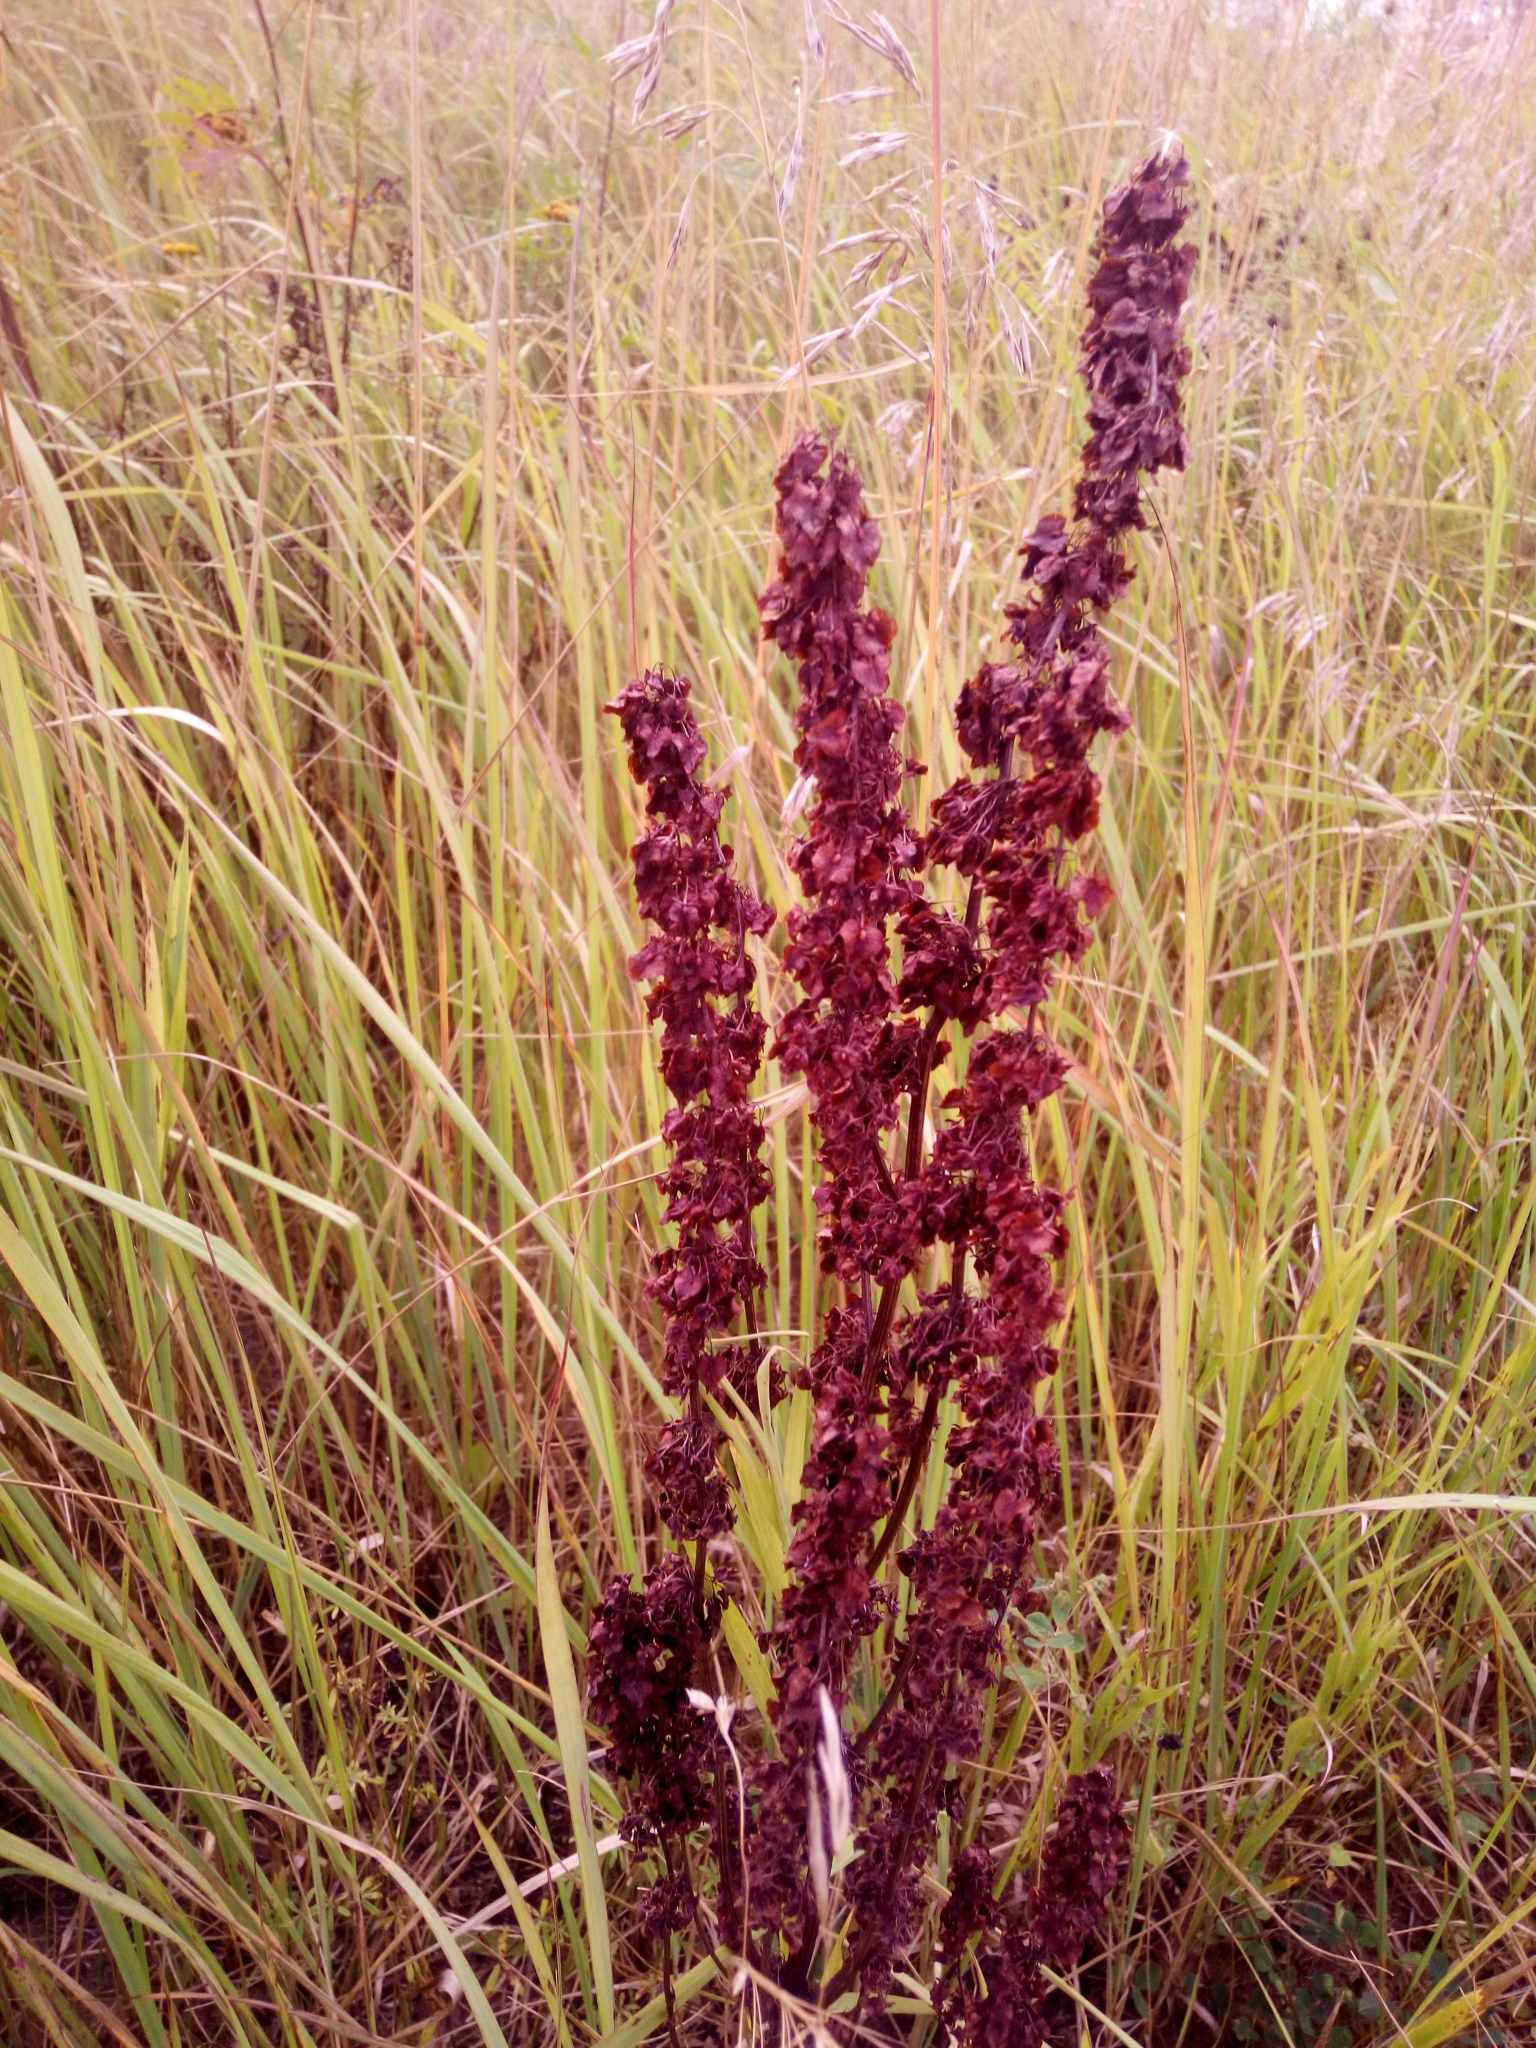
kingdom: Plantae
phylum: Tracheophyta
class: Magnoliopsida
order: Caryophyllales
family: Polygonaceae
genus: Rumex
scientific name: Rumex confertus
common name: Russian dock
